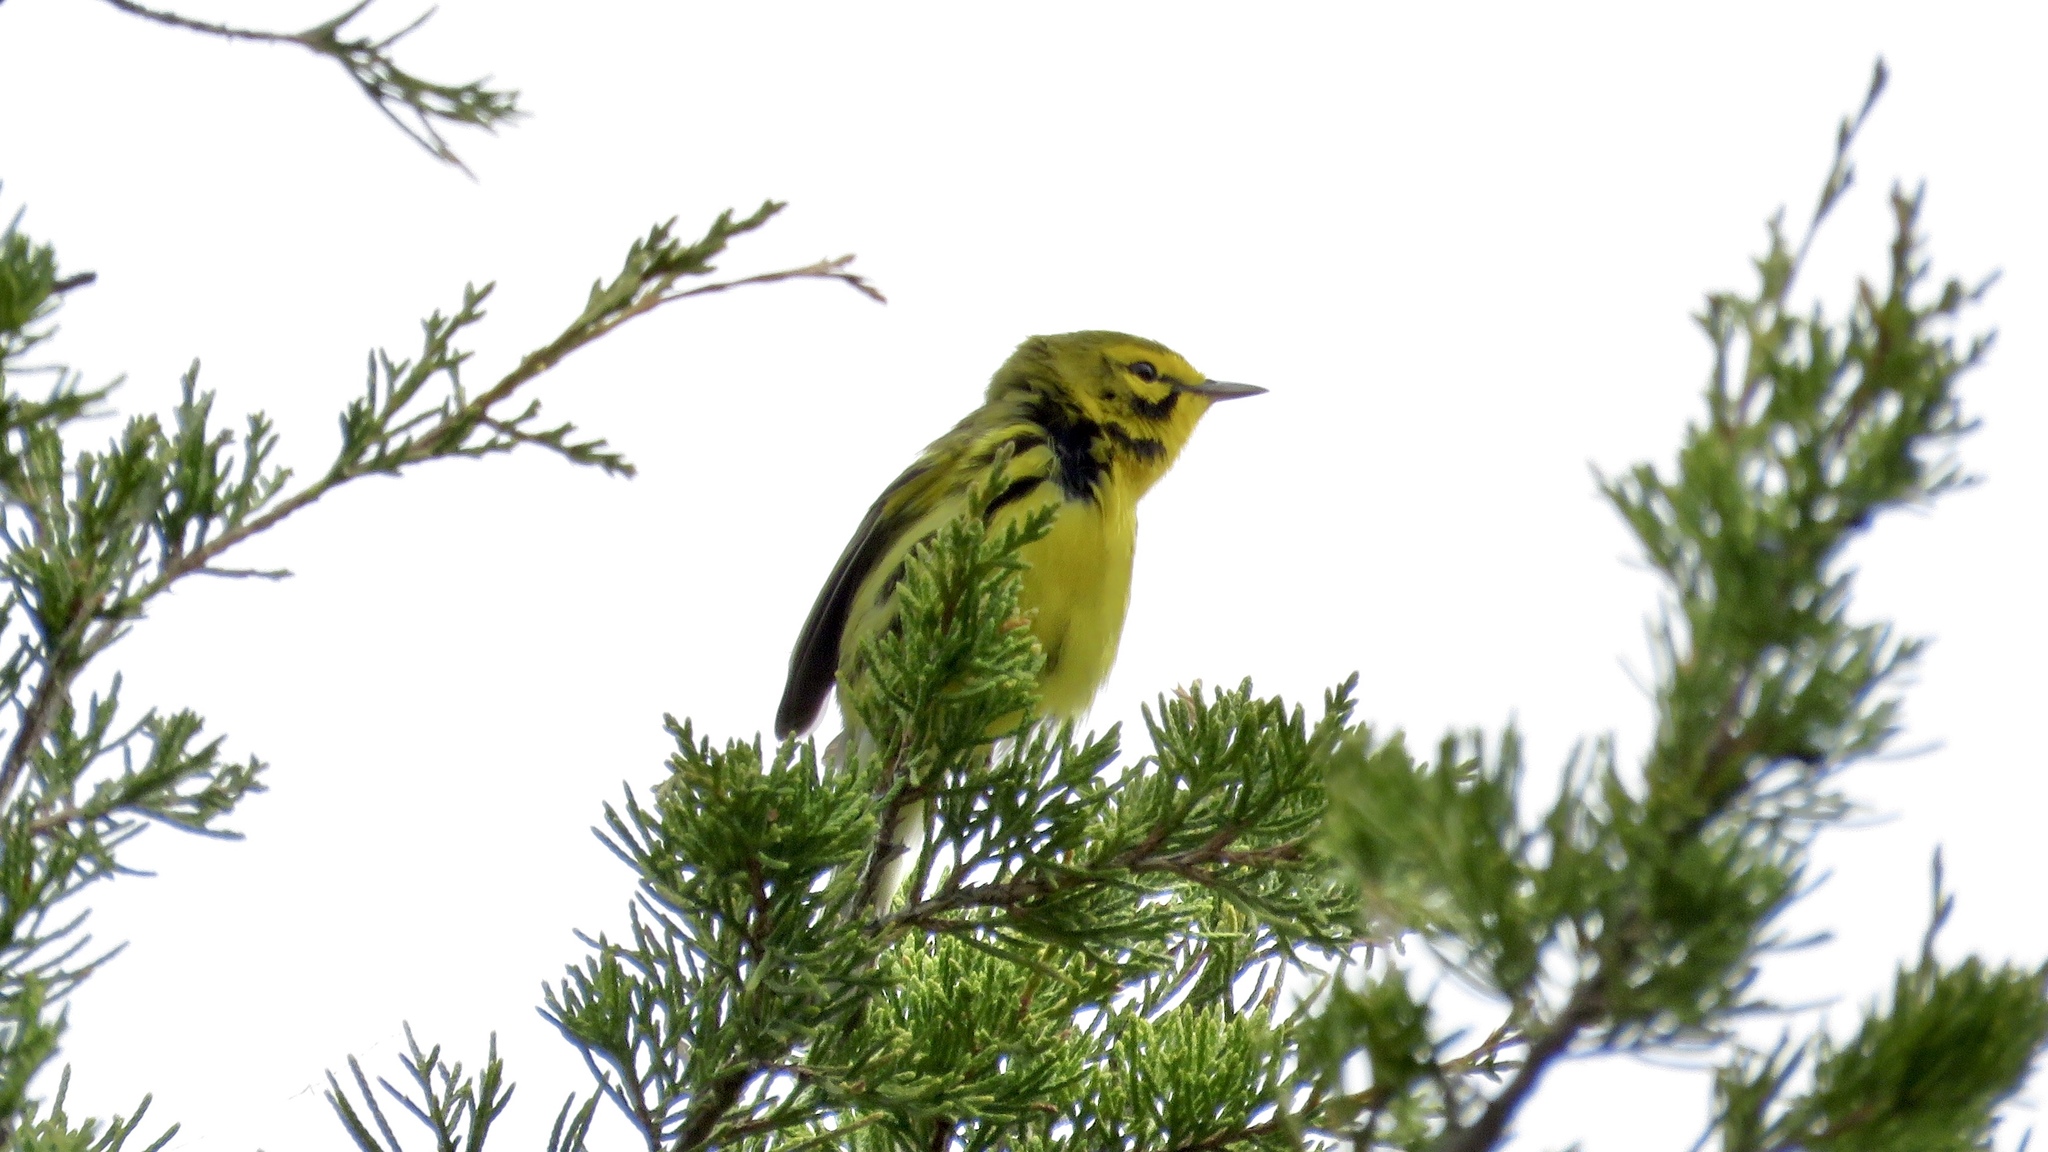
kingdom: Animalia
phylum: Chordata
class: Aves
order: Passeriformes
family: Parulidae
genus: Setophaga
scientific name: Setophaga discolor
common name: Prairie warbler
